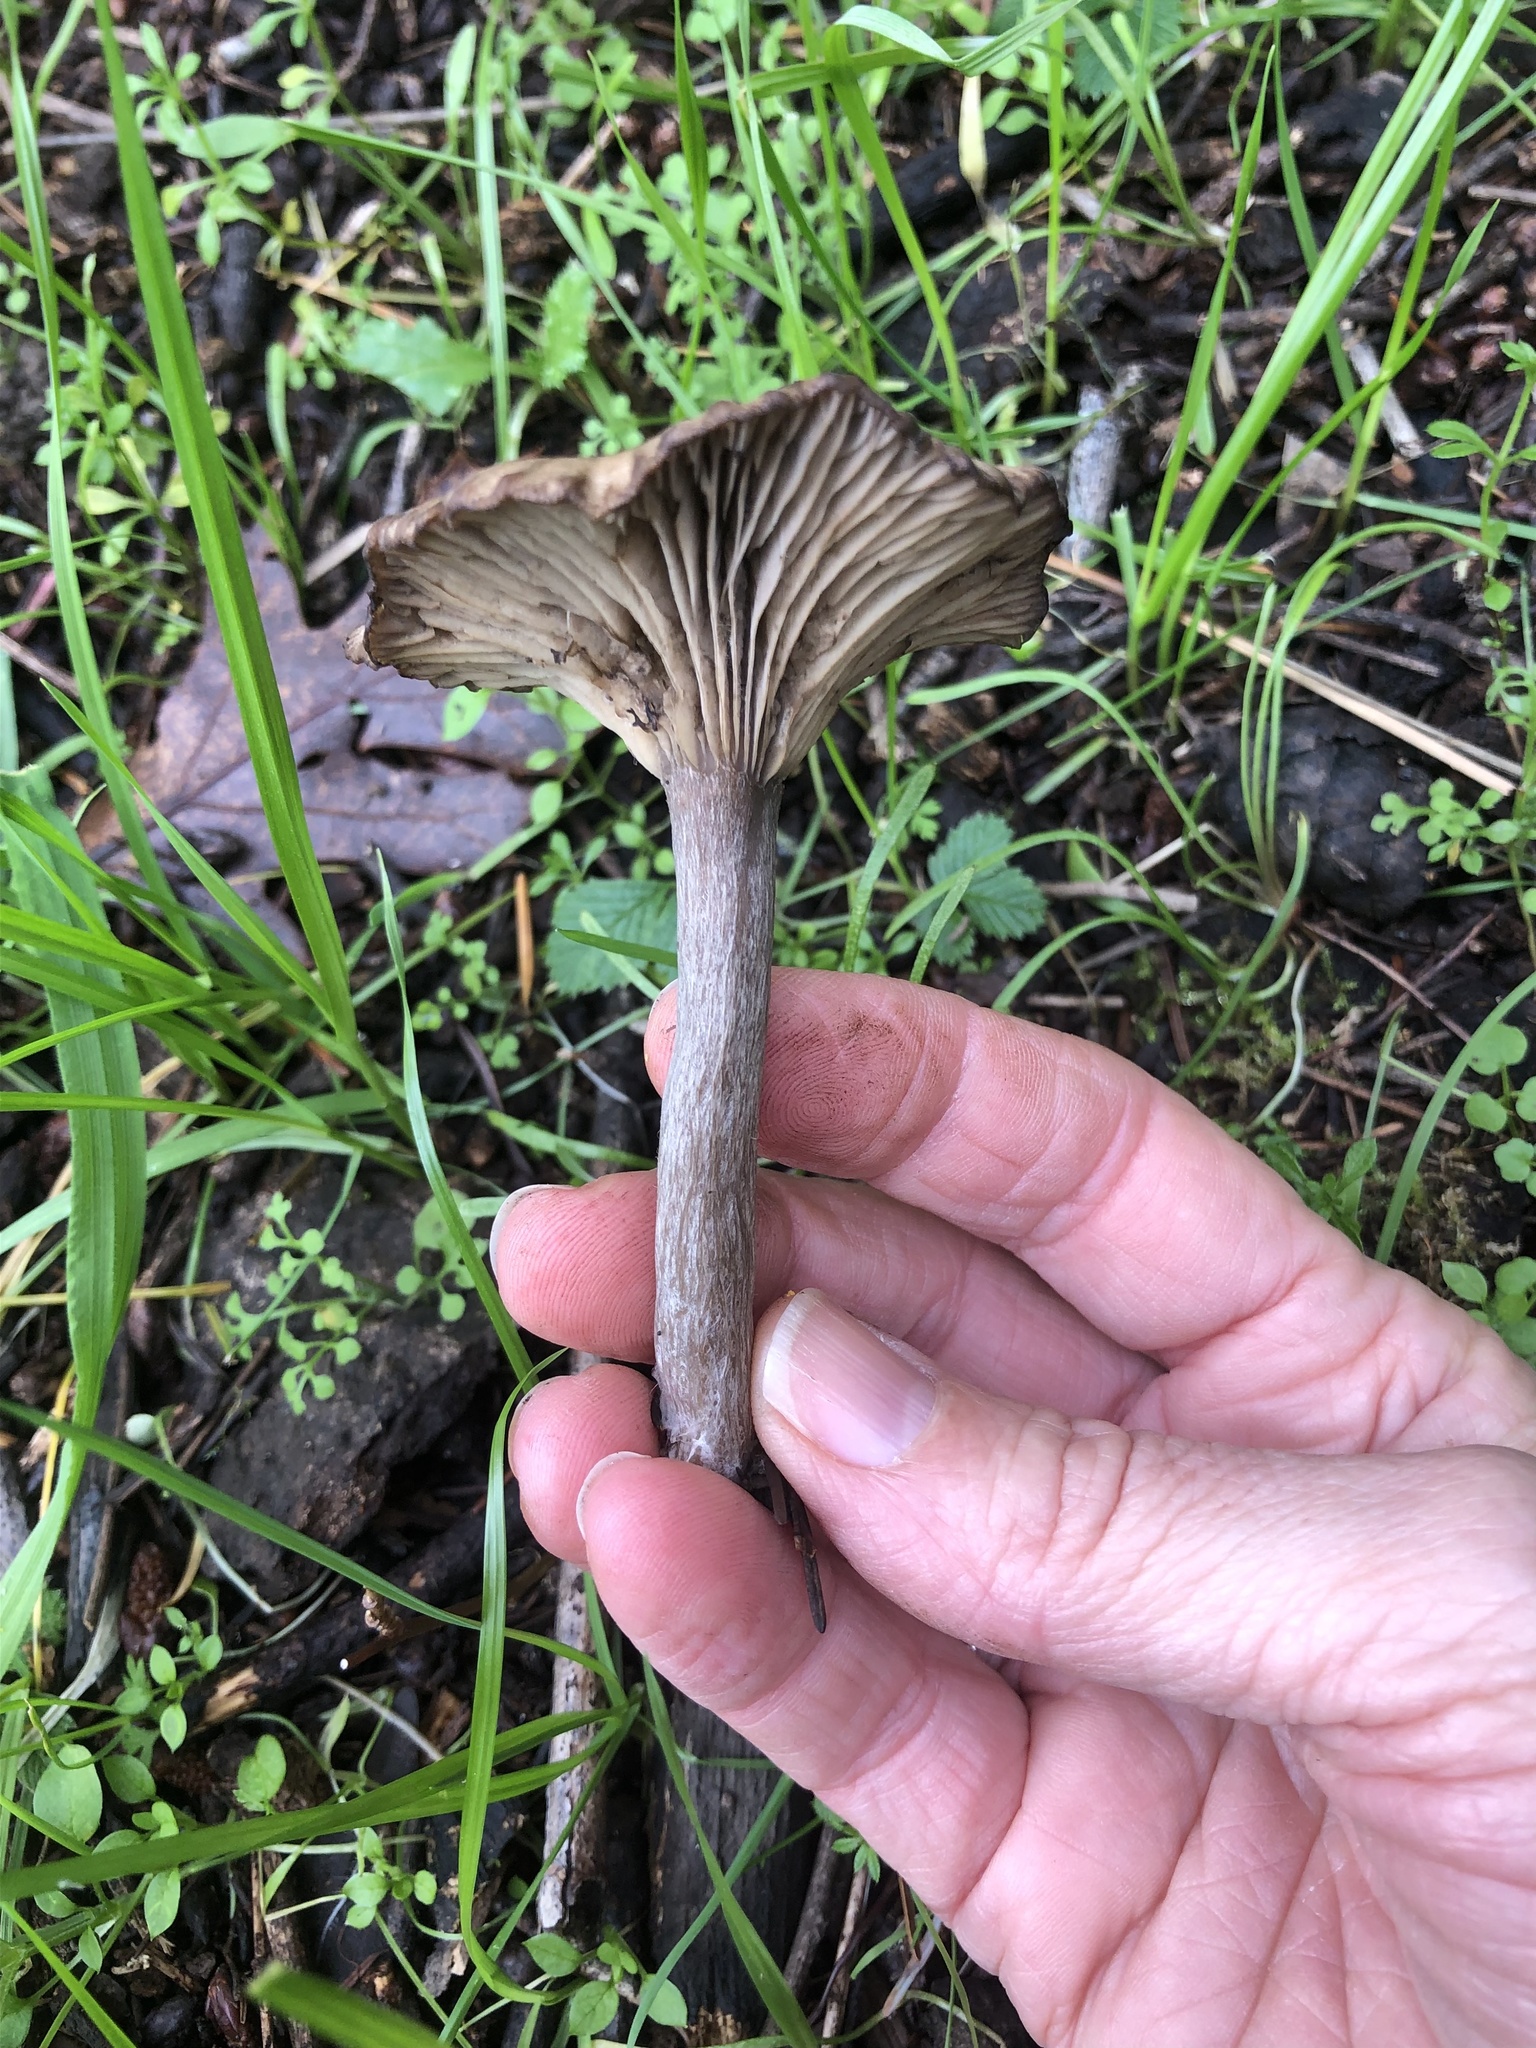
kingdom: Fungi
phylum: Basidiomycota
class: Agaricomycetes
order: Agaricales
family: Pseudoclitocybaceae
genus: Pseudoclitocybe
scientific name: Pseudoclitocybe cyathiformis
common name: Goblet
